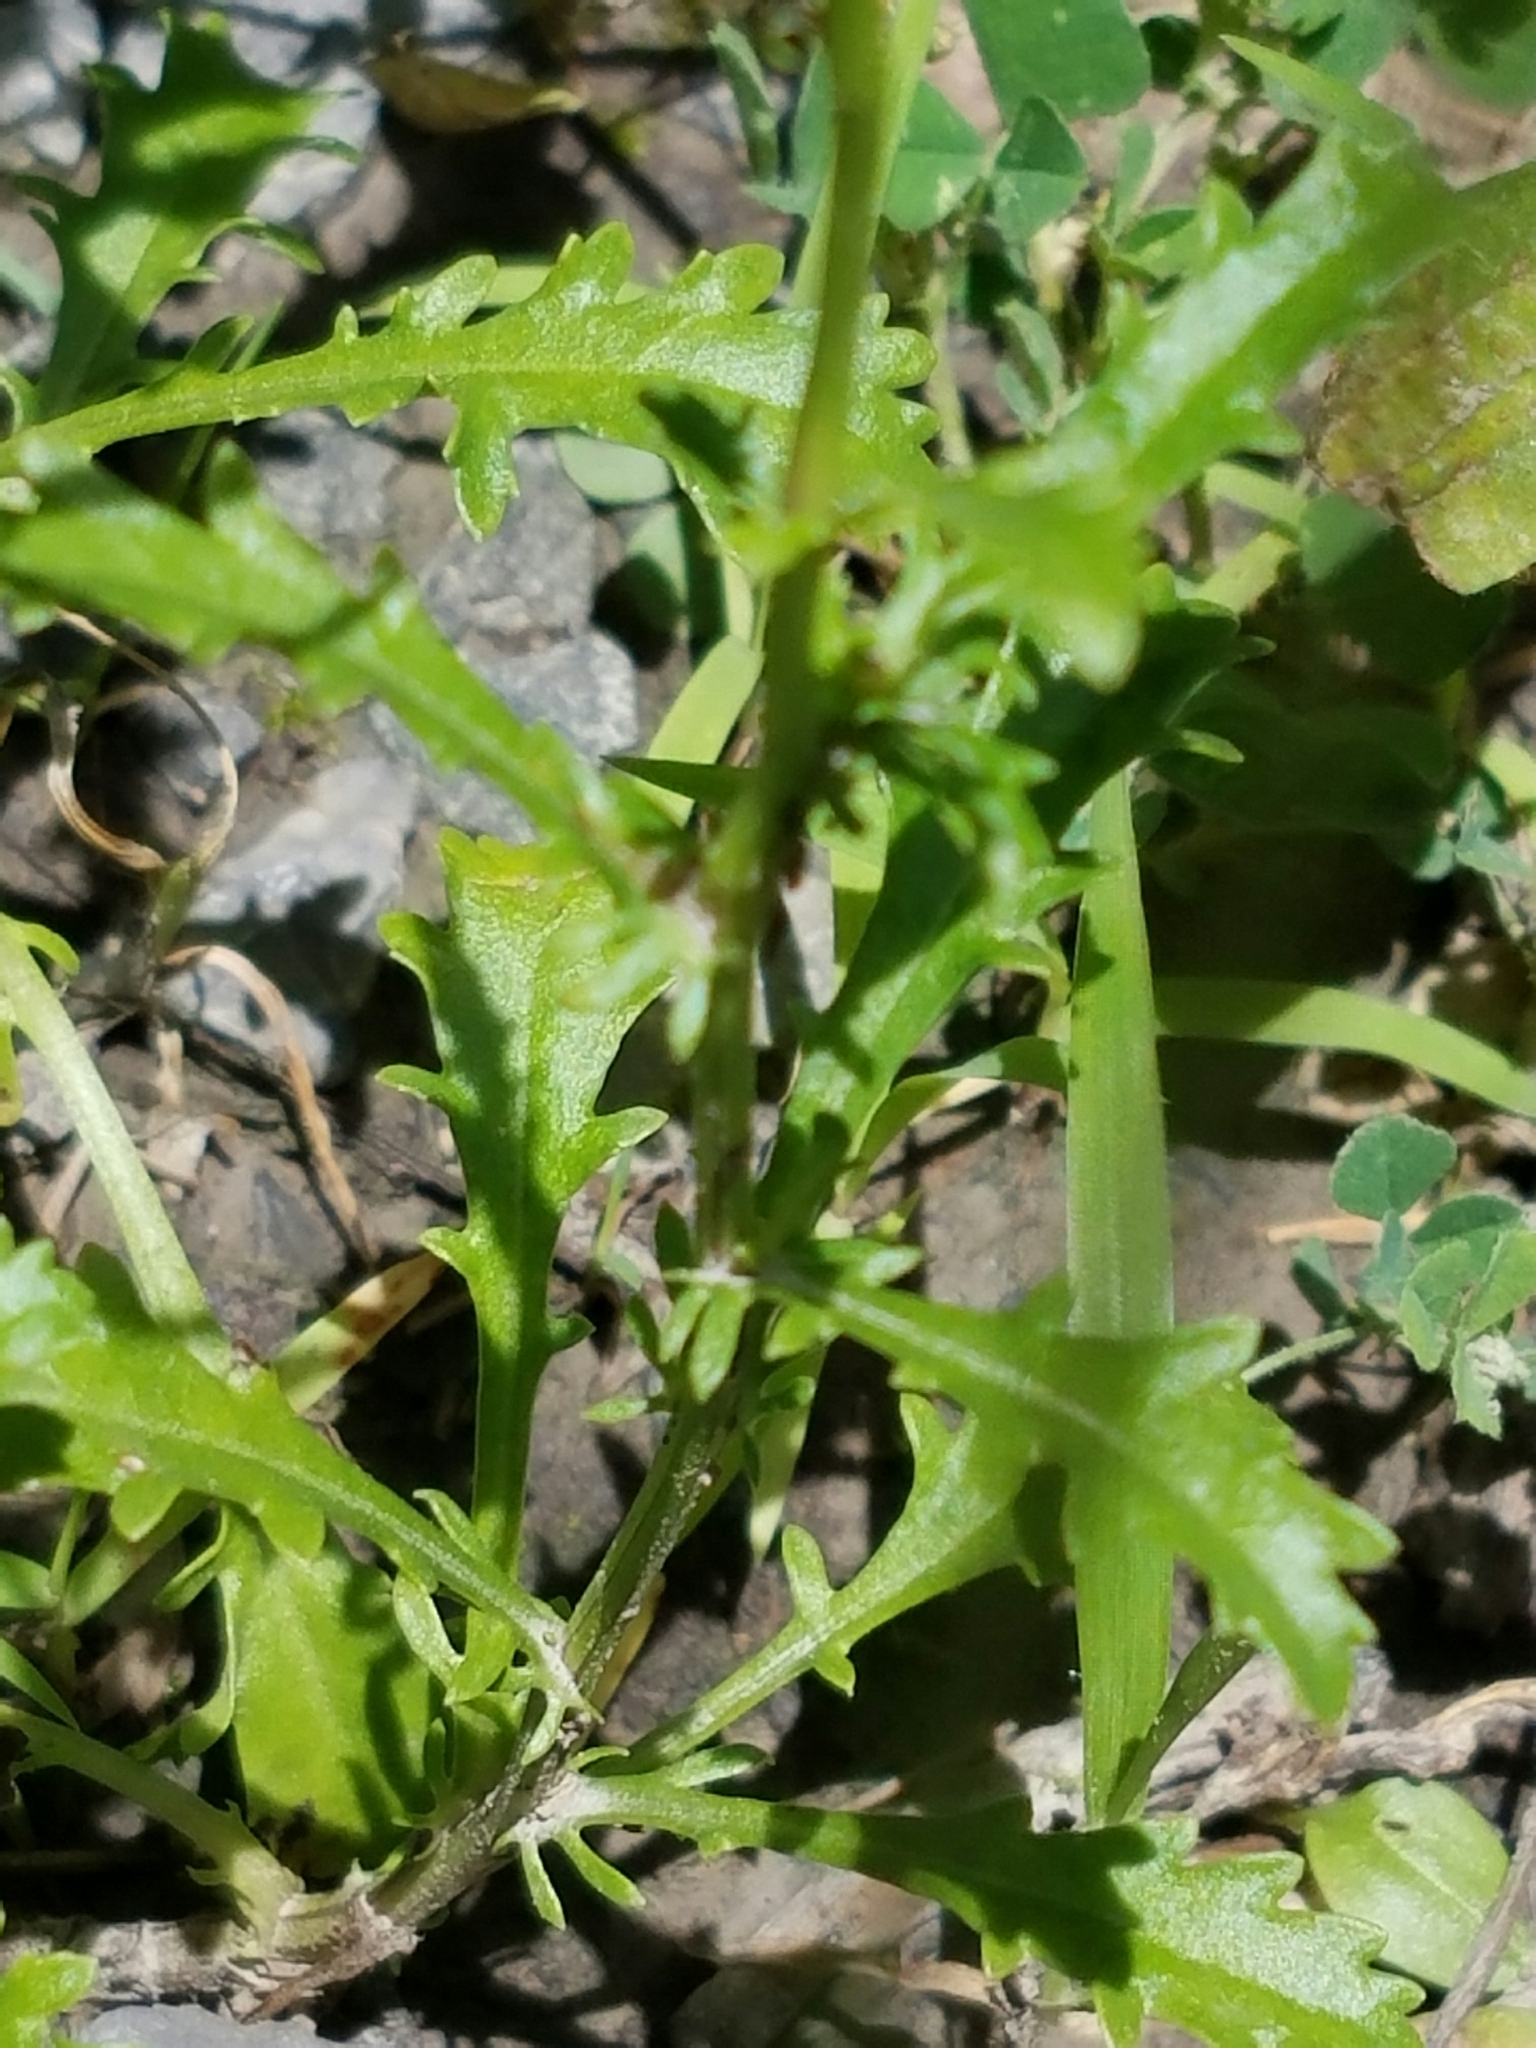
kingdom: Plantae
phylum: Tracheophyta
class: Magnoliopsida
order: Asterales
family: Asteraceae
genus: Leucanthemum
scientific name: Leucanthemum vulgare
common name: Oxeye daisy
